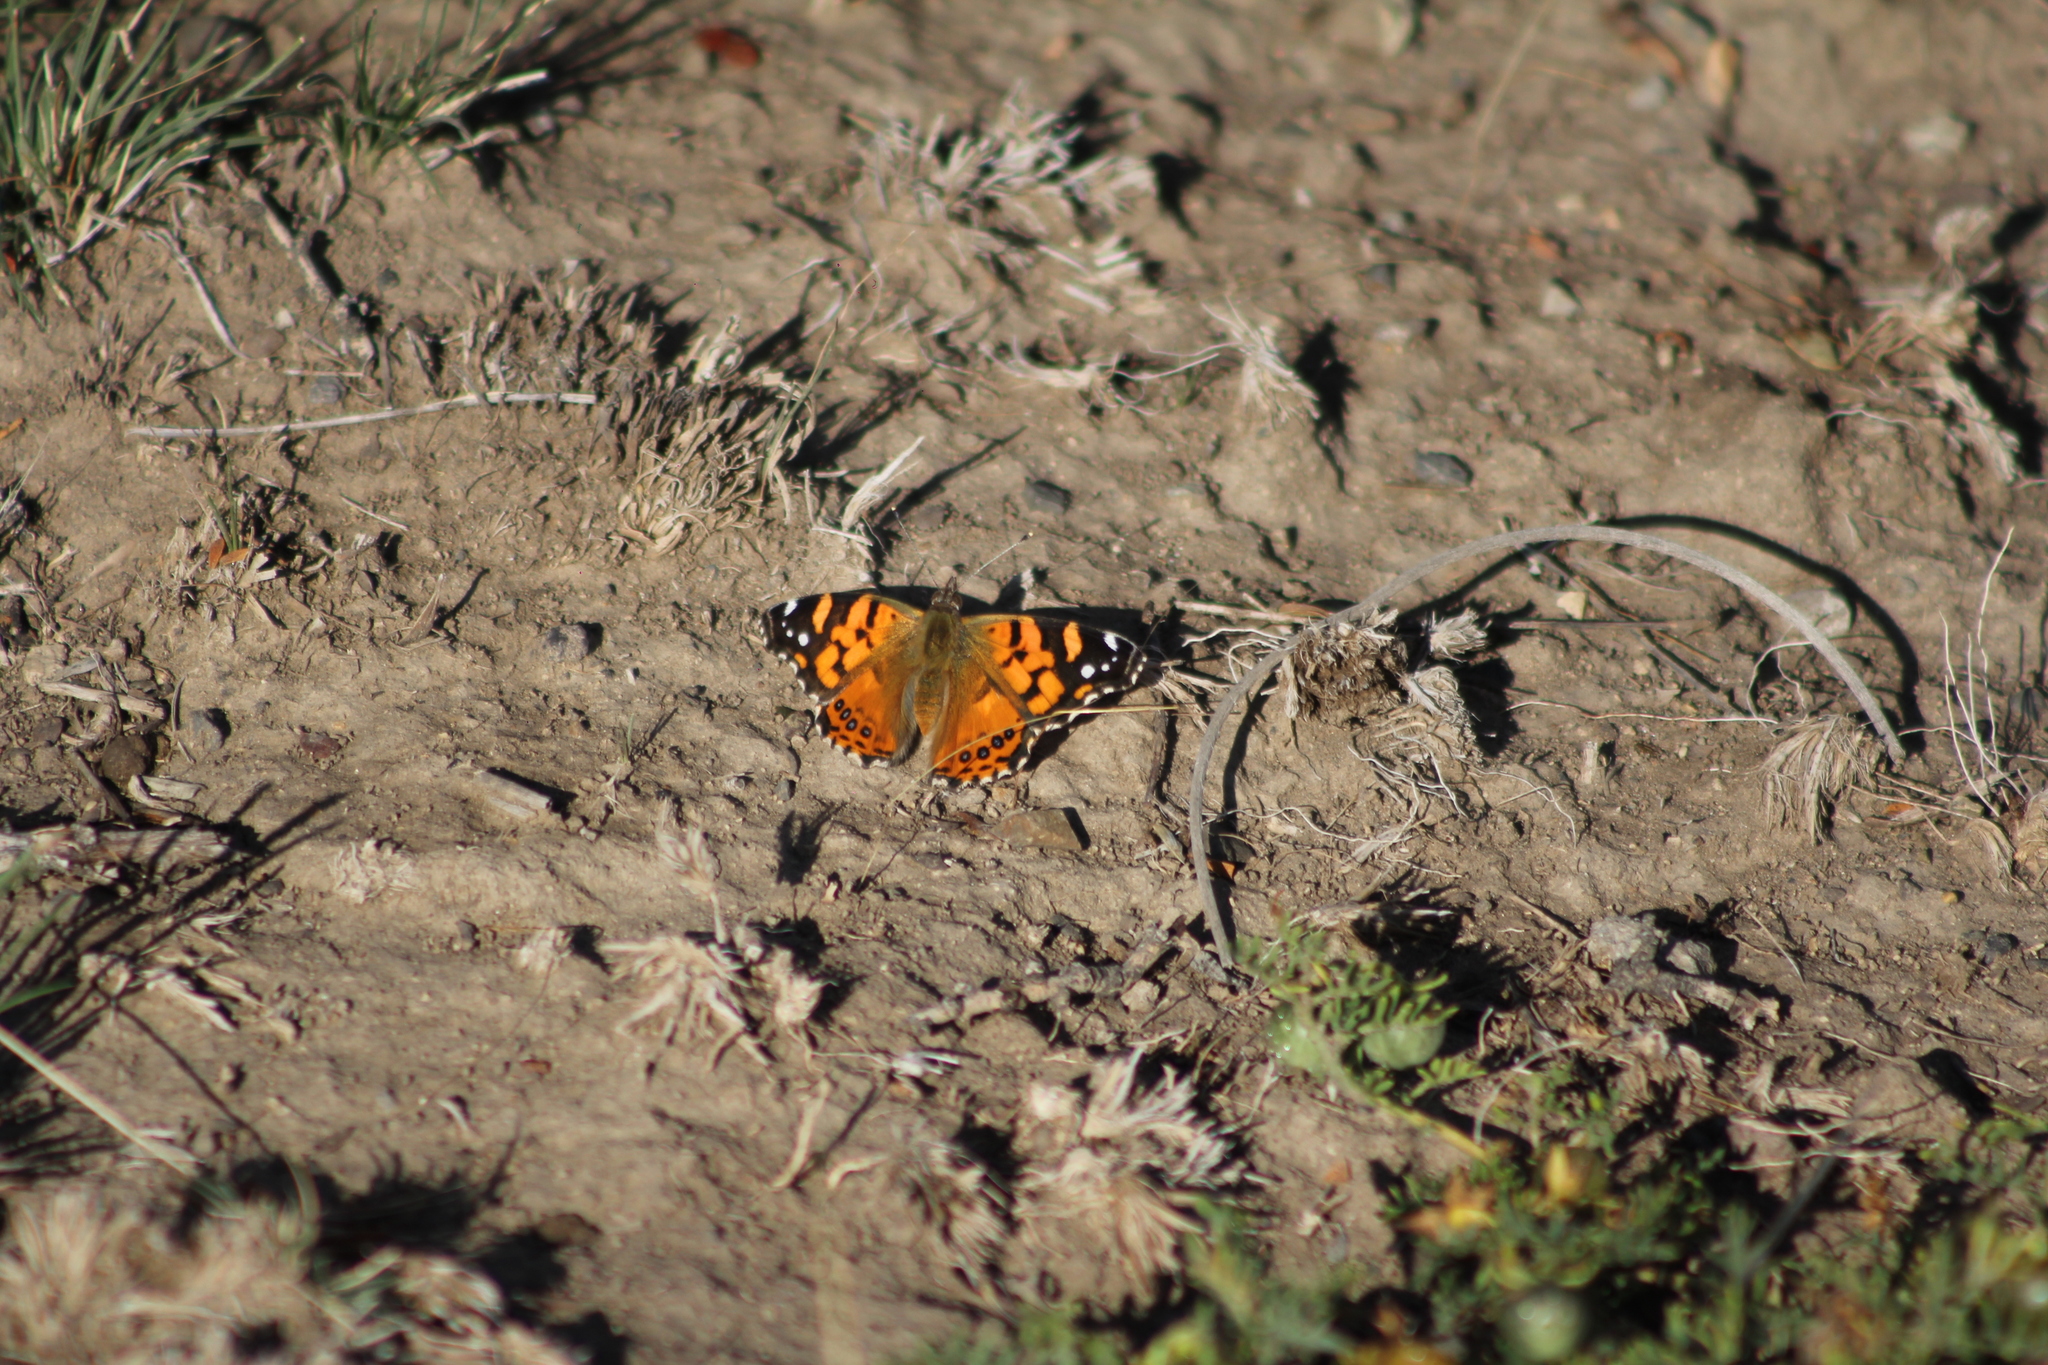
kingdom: Animalia
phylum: Arthropoda
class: Insecta
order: Lepidoptera
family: Nymphalidae
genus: Vanessa
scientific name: Vanessa carye
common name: Subtropical lady
